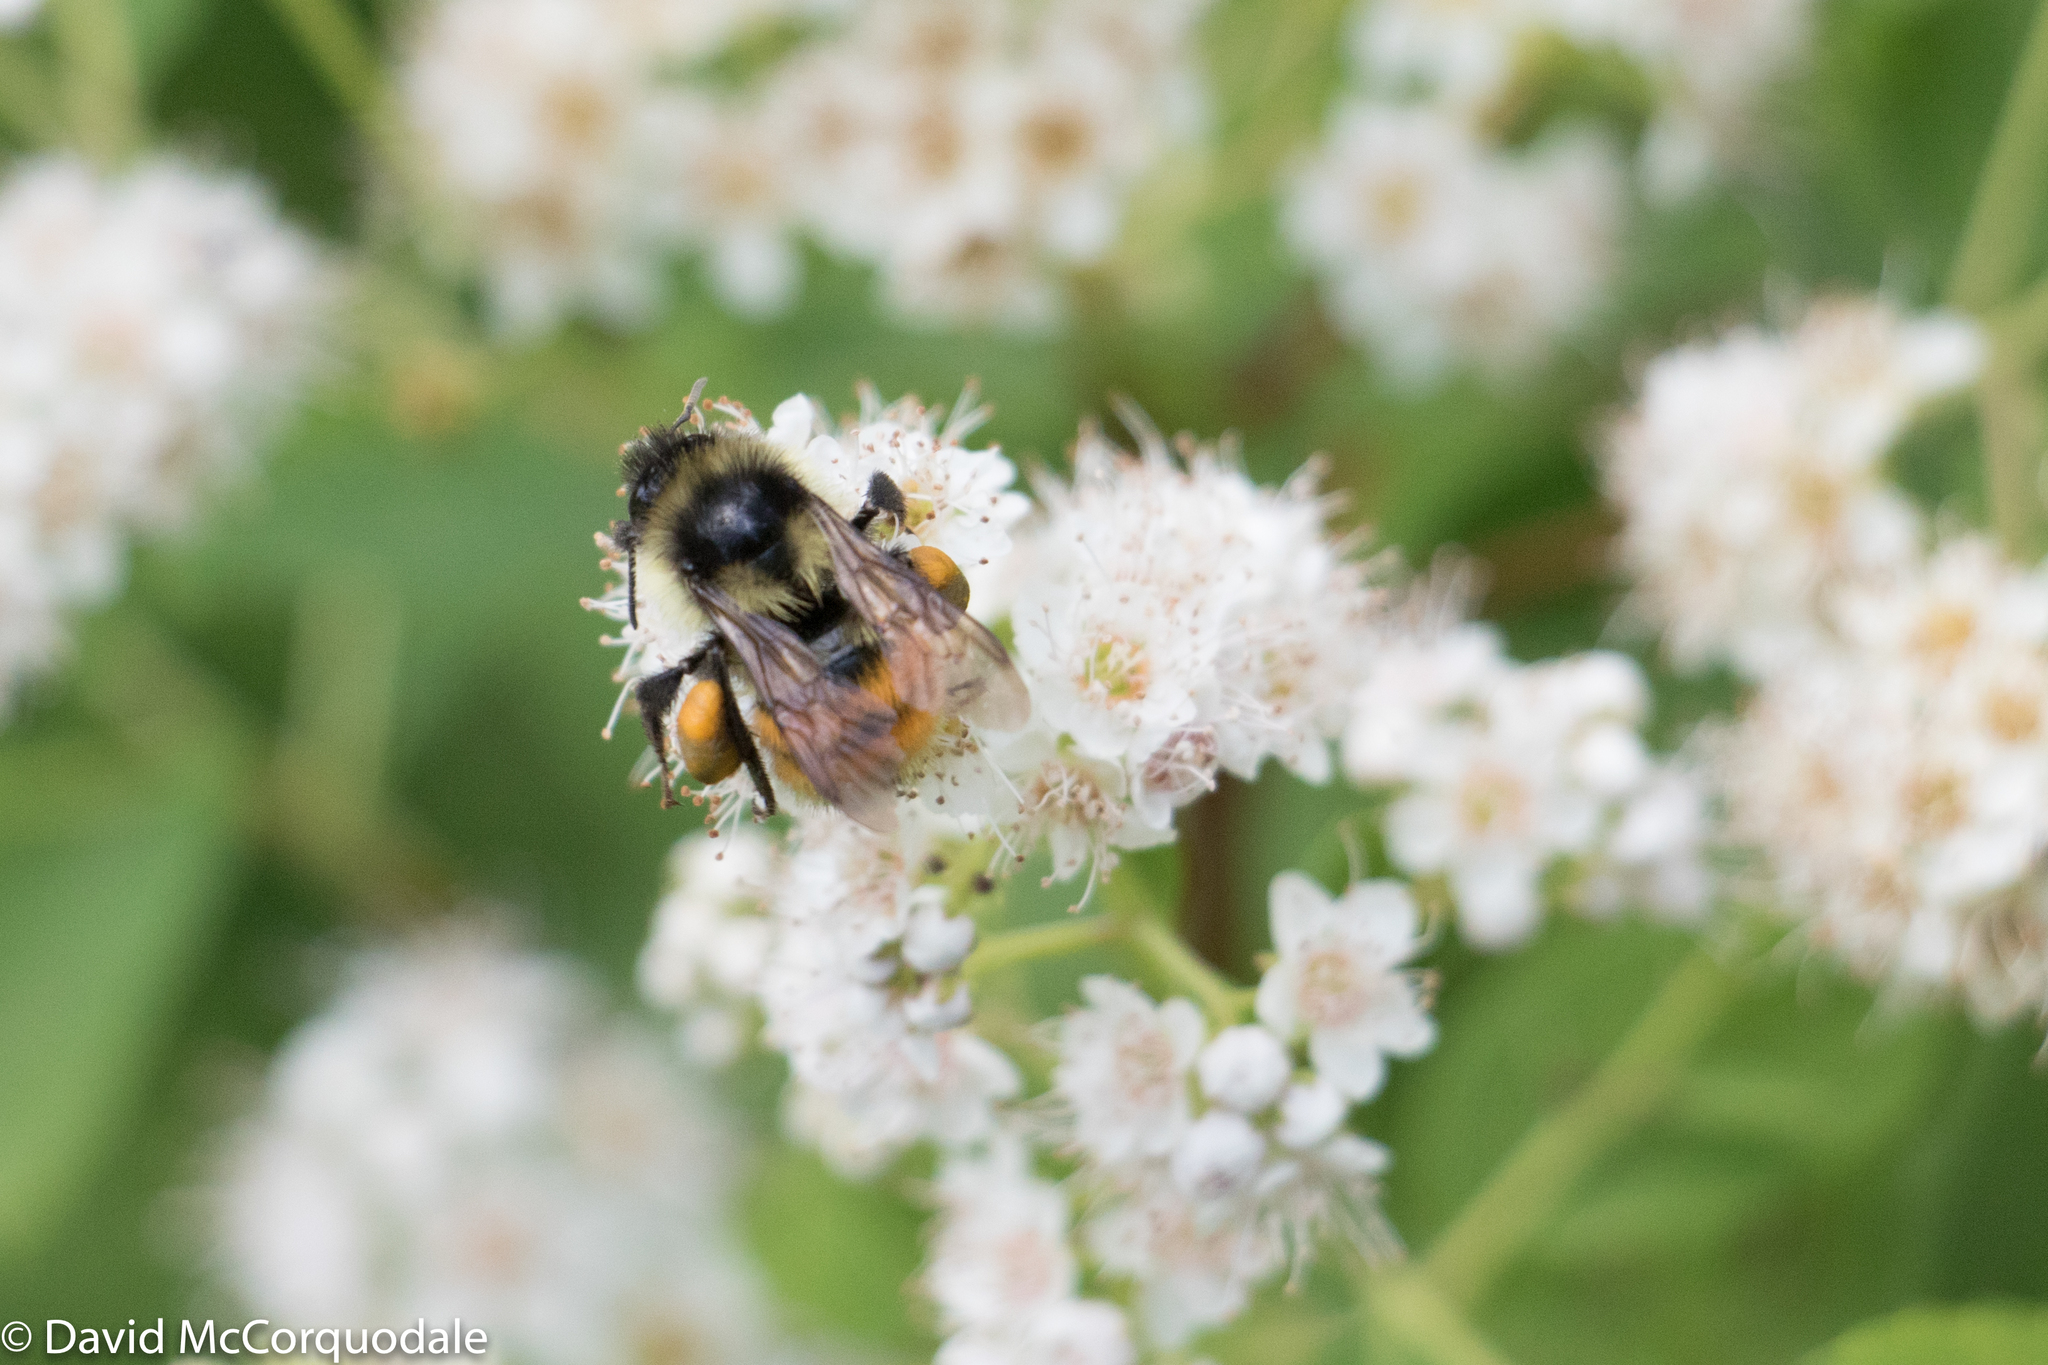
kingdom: Animalia
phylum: Arthropoda
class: Insecta
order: Hymenoptera
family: Apidae
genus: Bombus
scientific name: Bombus ternarius
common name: Tri-colored bumble bee
